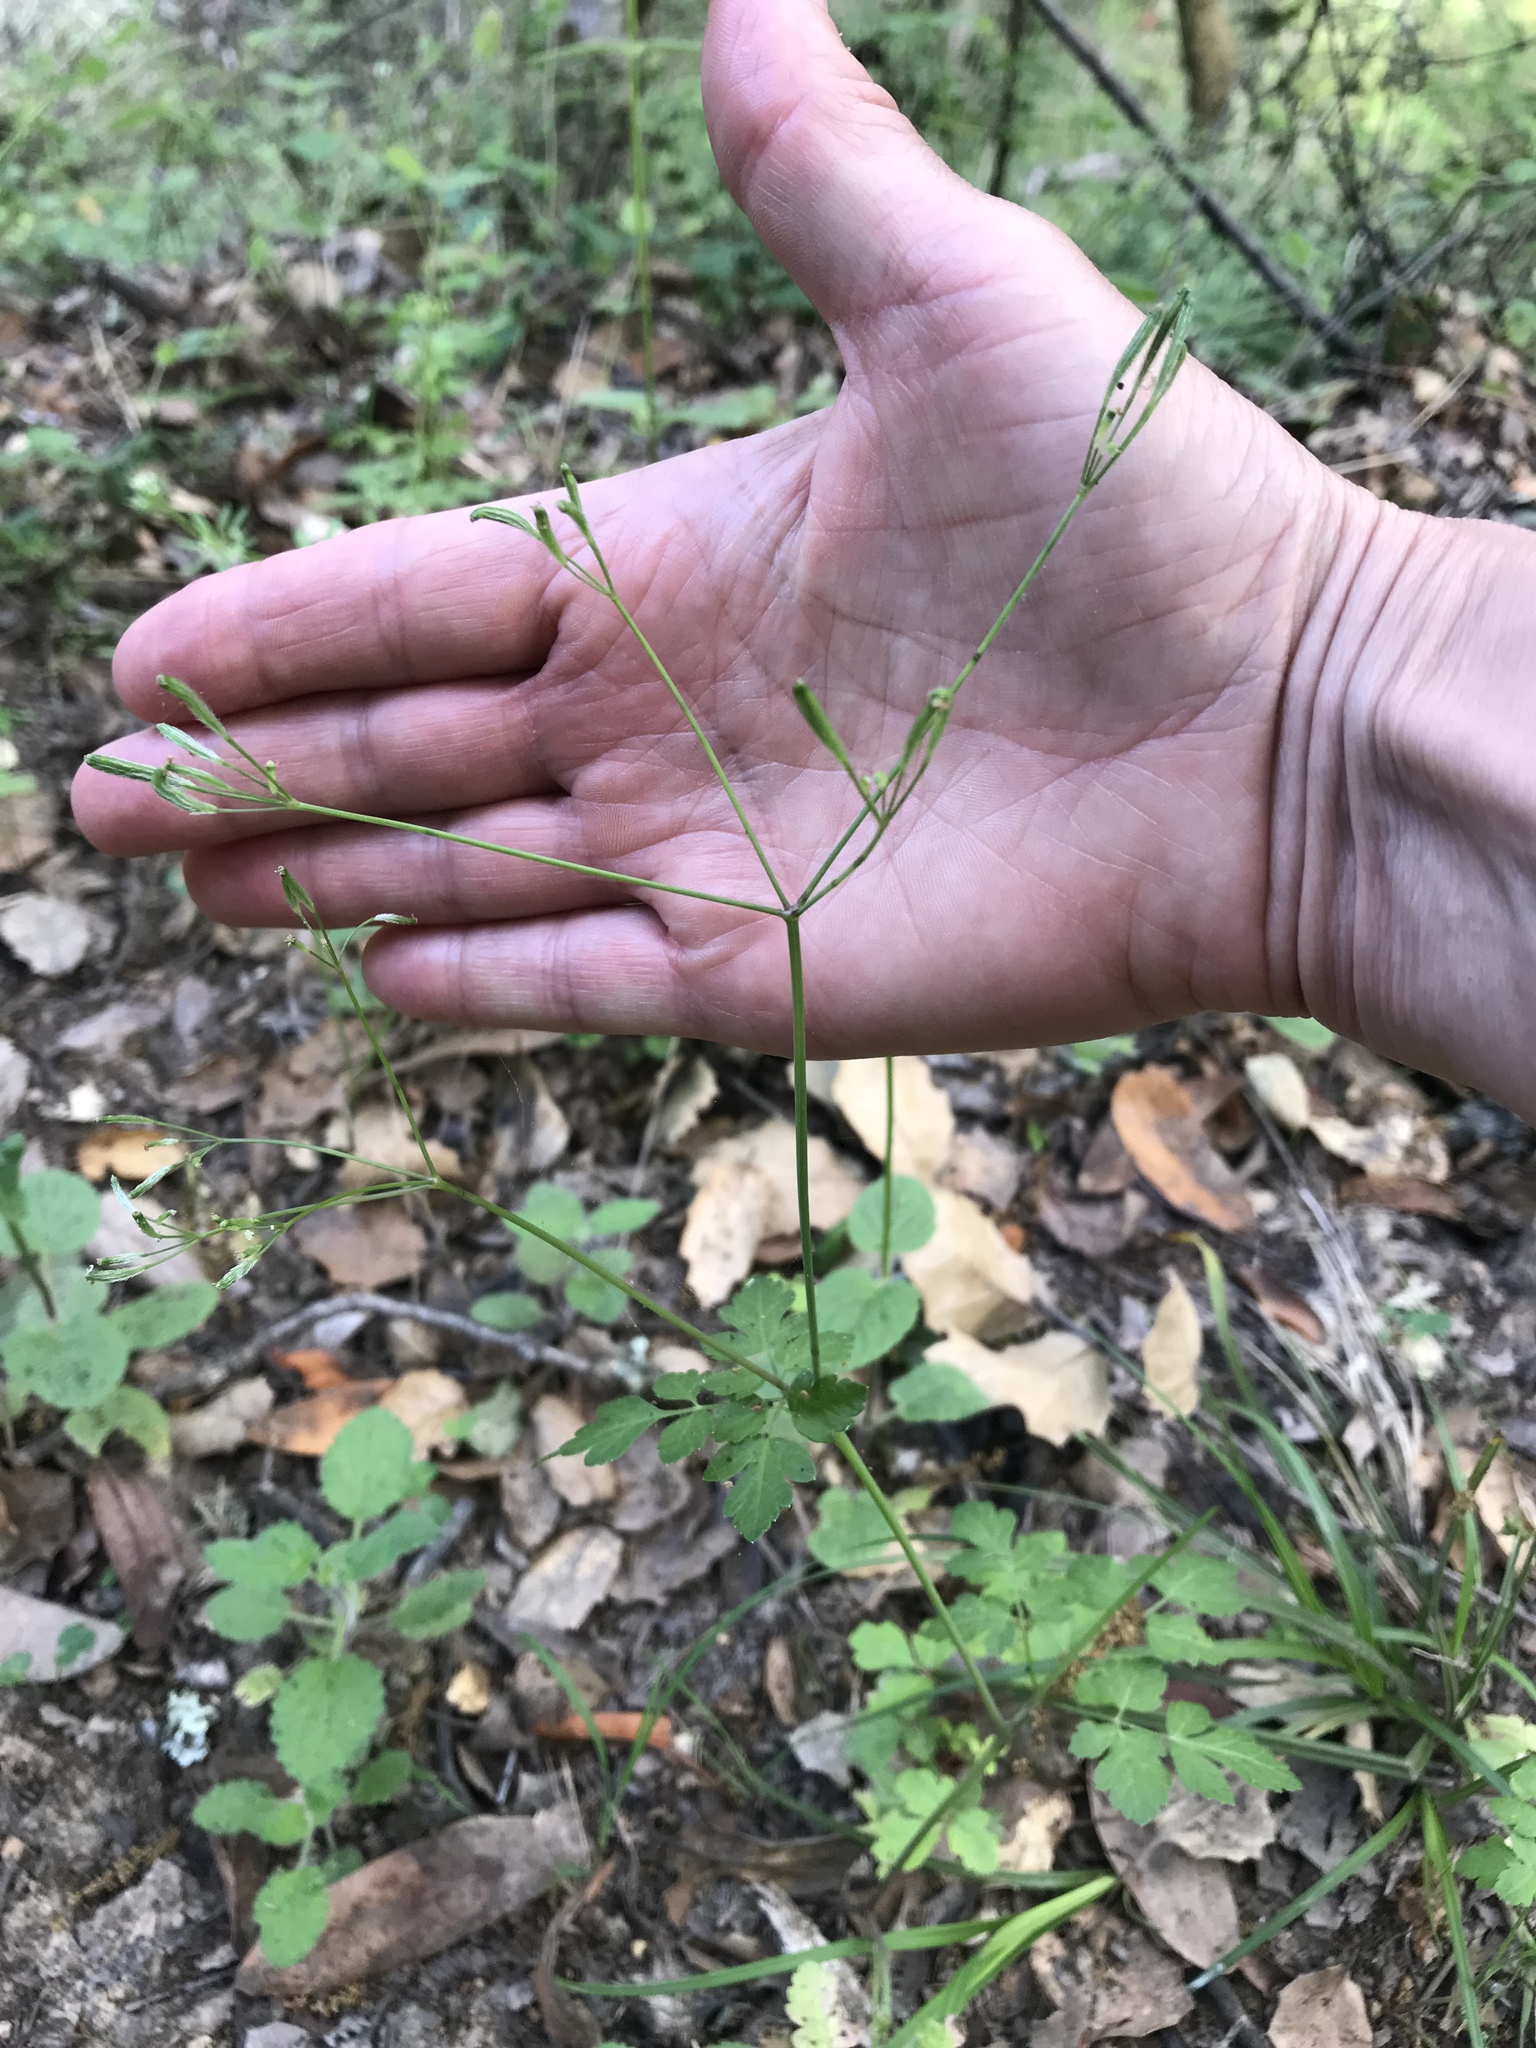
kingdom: Plantae
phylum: Tracheophyta
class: Magnoliopsida
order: Apiales
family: Apiaceae
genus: Osmorhiza
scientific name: Osmorhiza berteroi
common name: Mountain sweet cicely
